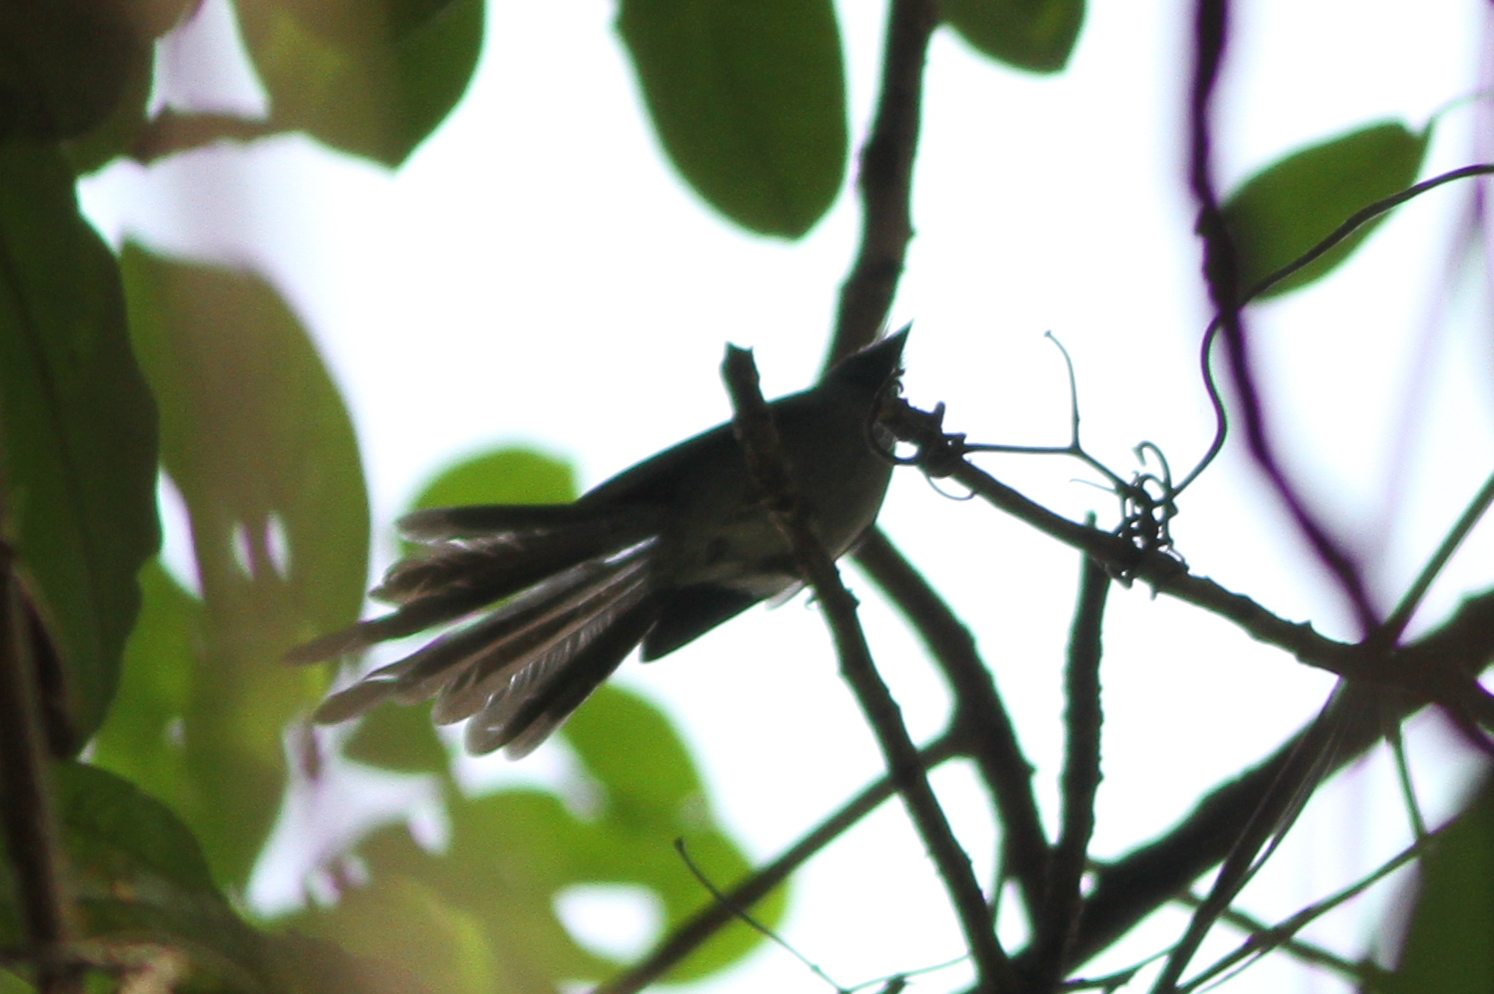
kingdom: Animalia
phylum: Chordata
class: Aves
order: Passeriformes
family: Stenostiridae
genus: Elminia
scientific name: Elminia longicauda
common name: African blue flycatcher
